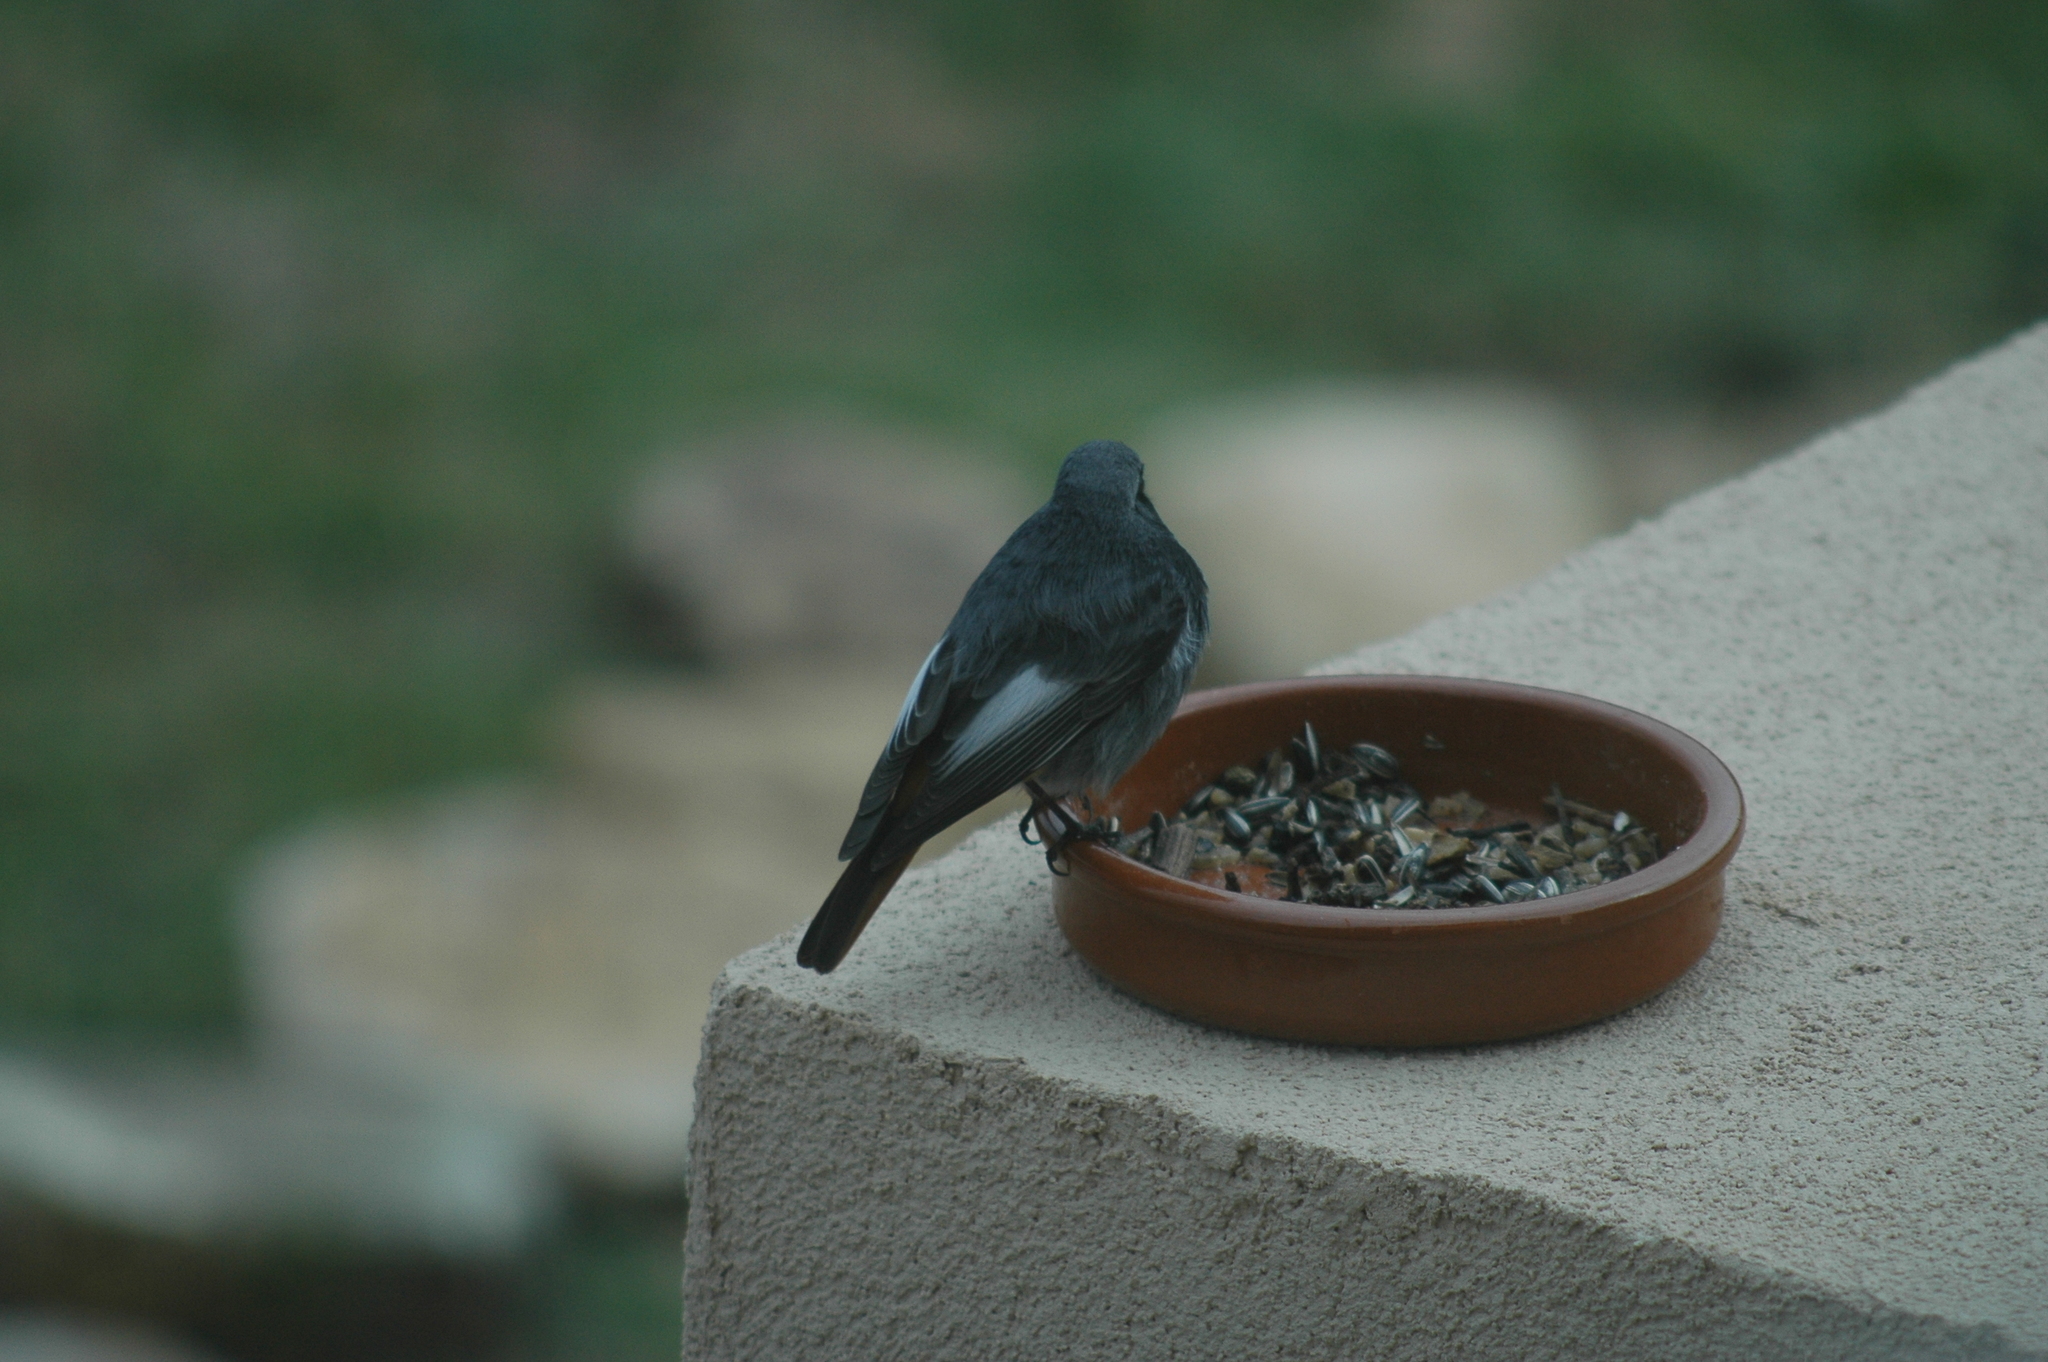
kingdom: Animalia
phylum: Chordata
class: Aves
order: Passeriformes
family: Muscicapidae
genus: Phoenicurus
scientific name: Phoenicurus ochruros
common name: Black redstart
